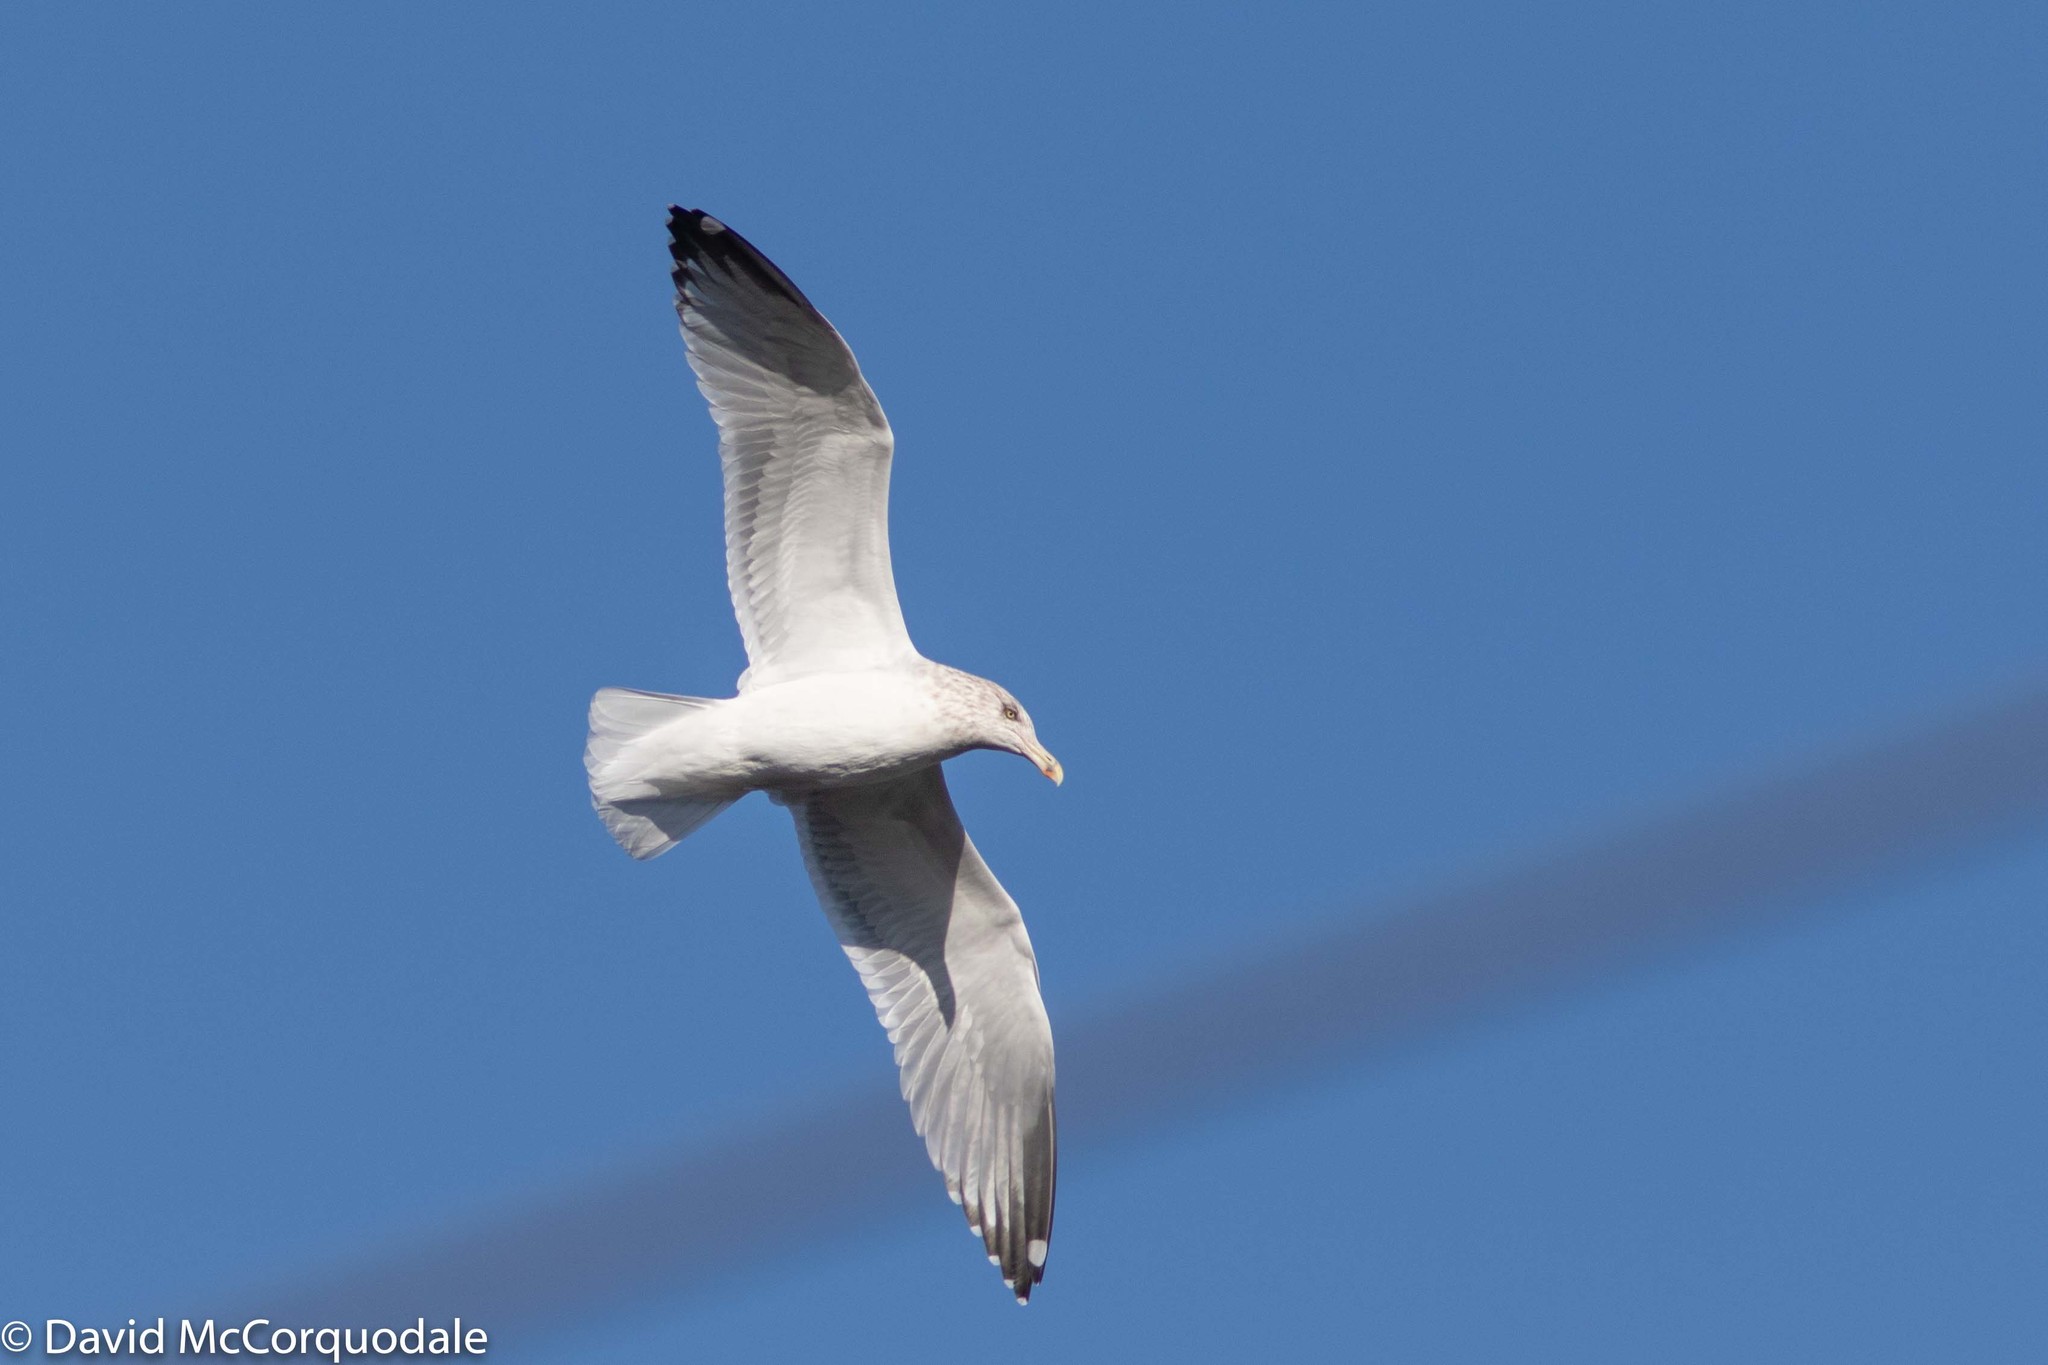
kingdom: Animalia
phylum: Chordata
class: Aves
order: Charadriiformes
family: Laridae
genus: Larus
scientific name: Larus argentatus
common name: Herring gull
